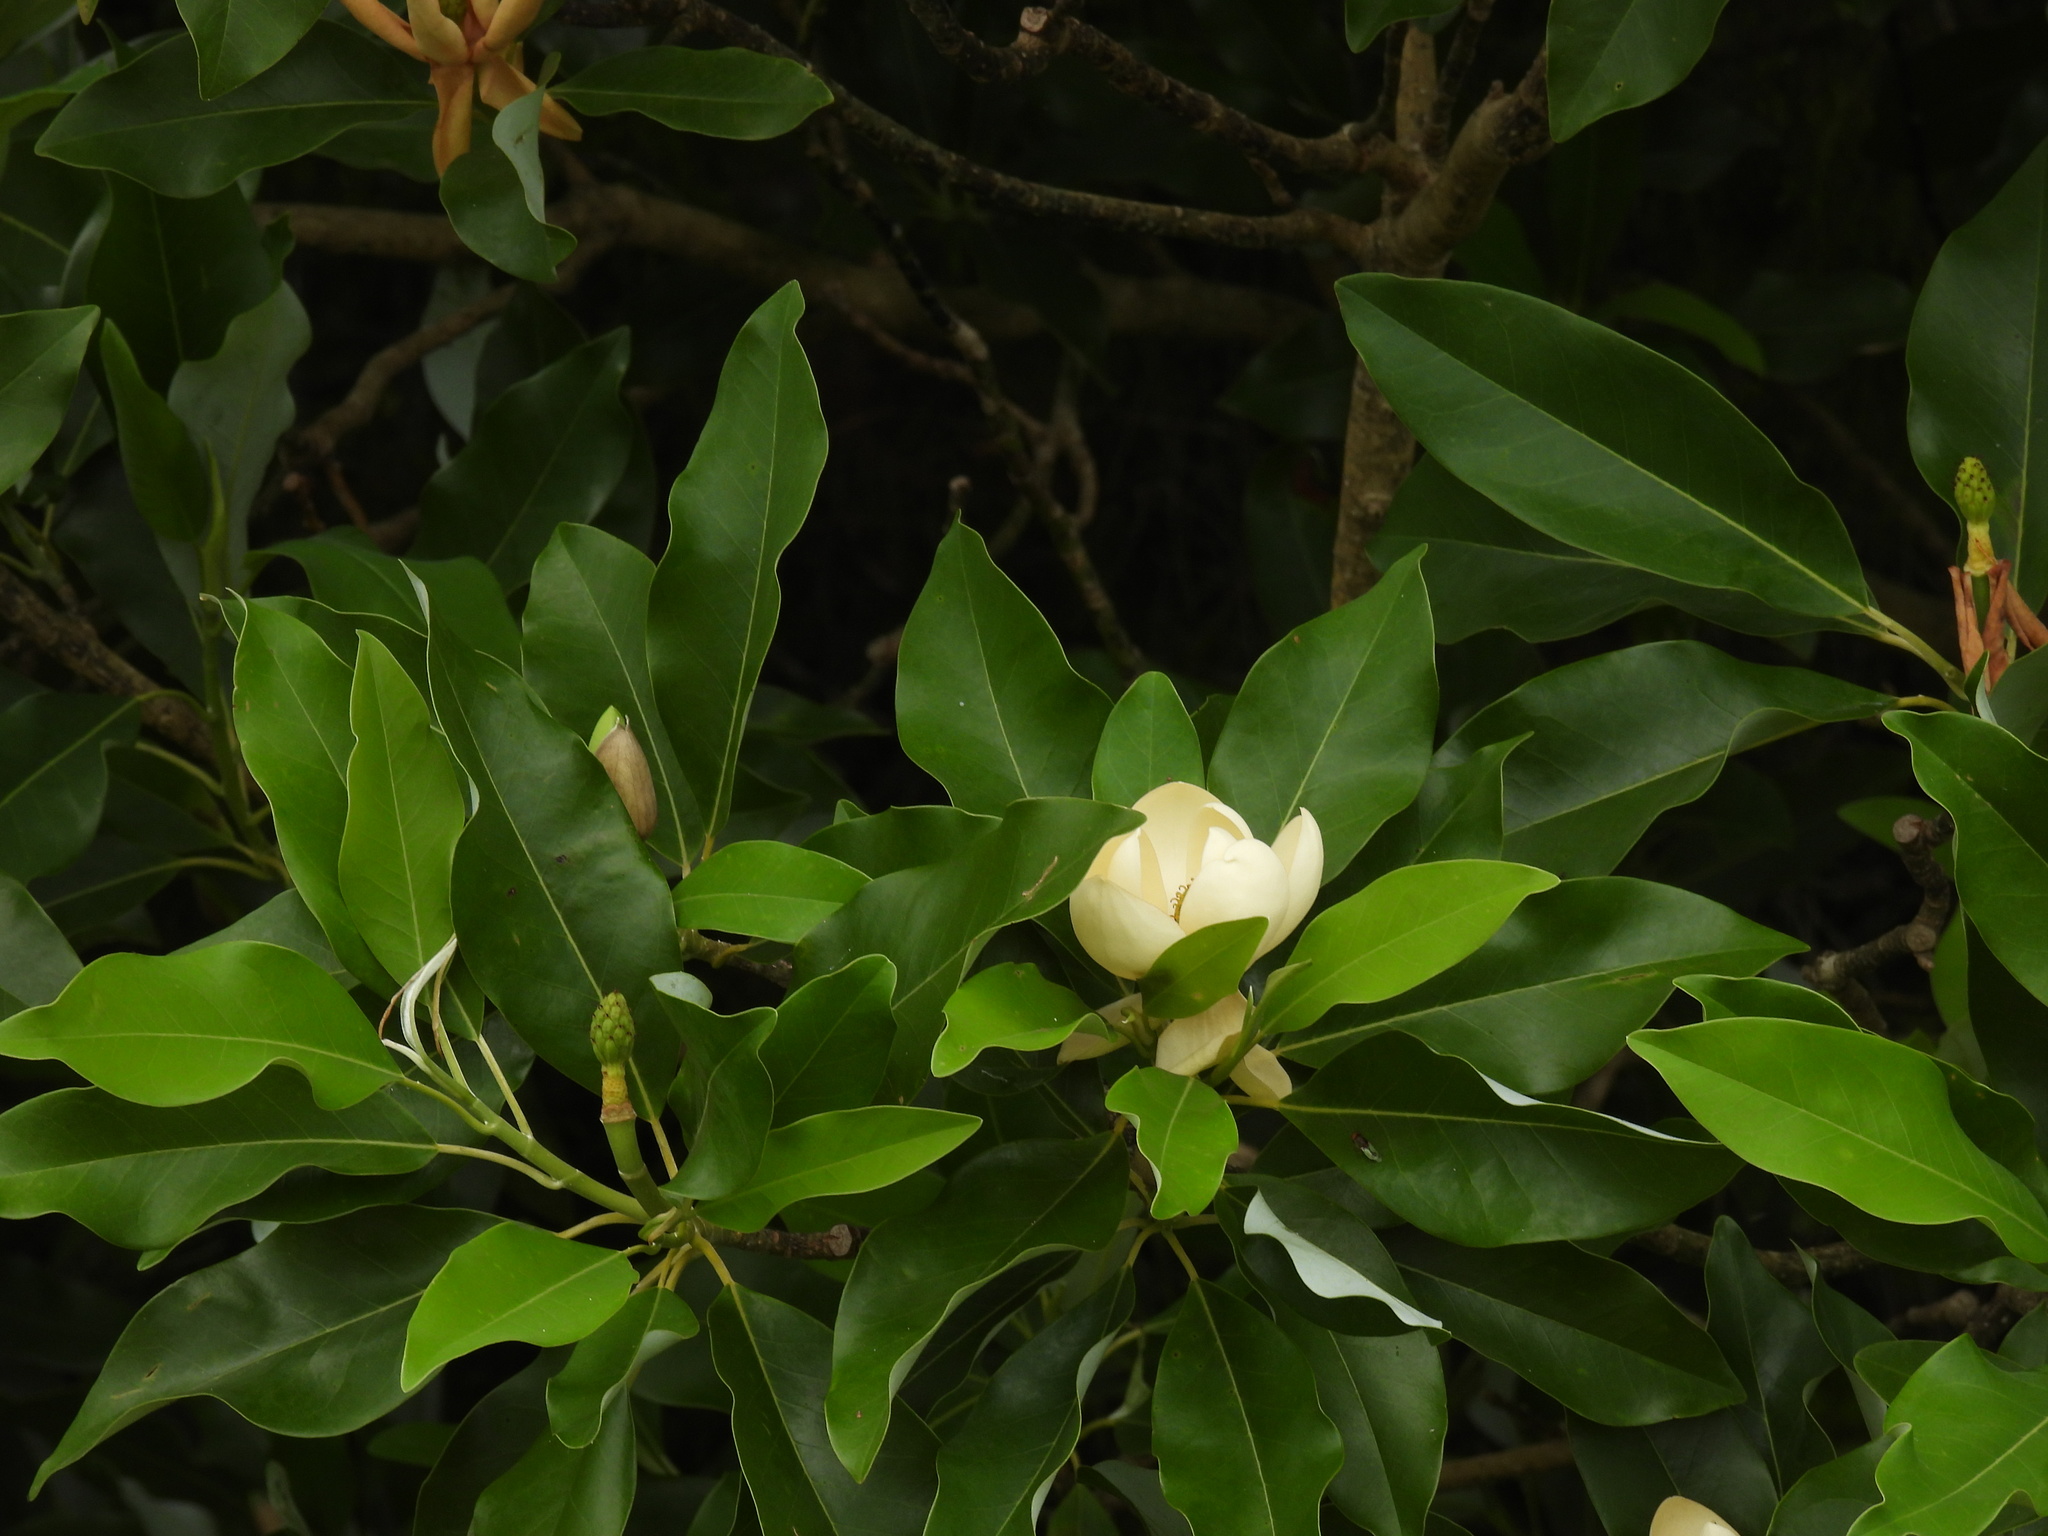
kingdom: Plantae
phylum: Tracheophyta
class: Magnoliopsida
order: Magnoliales
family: Magnoliaceae
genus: Magnolia
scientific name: Magnolia virginiana
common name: Swamp bay
